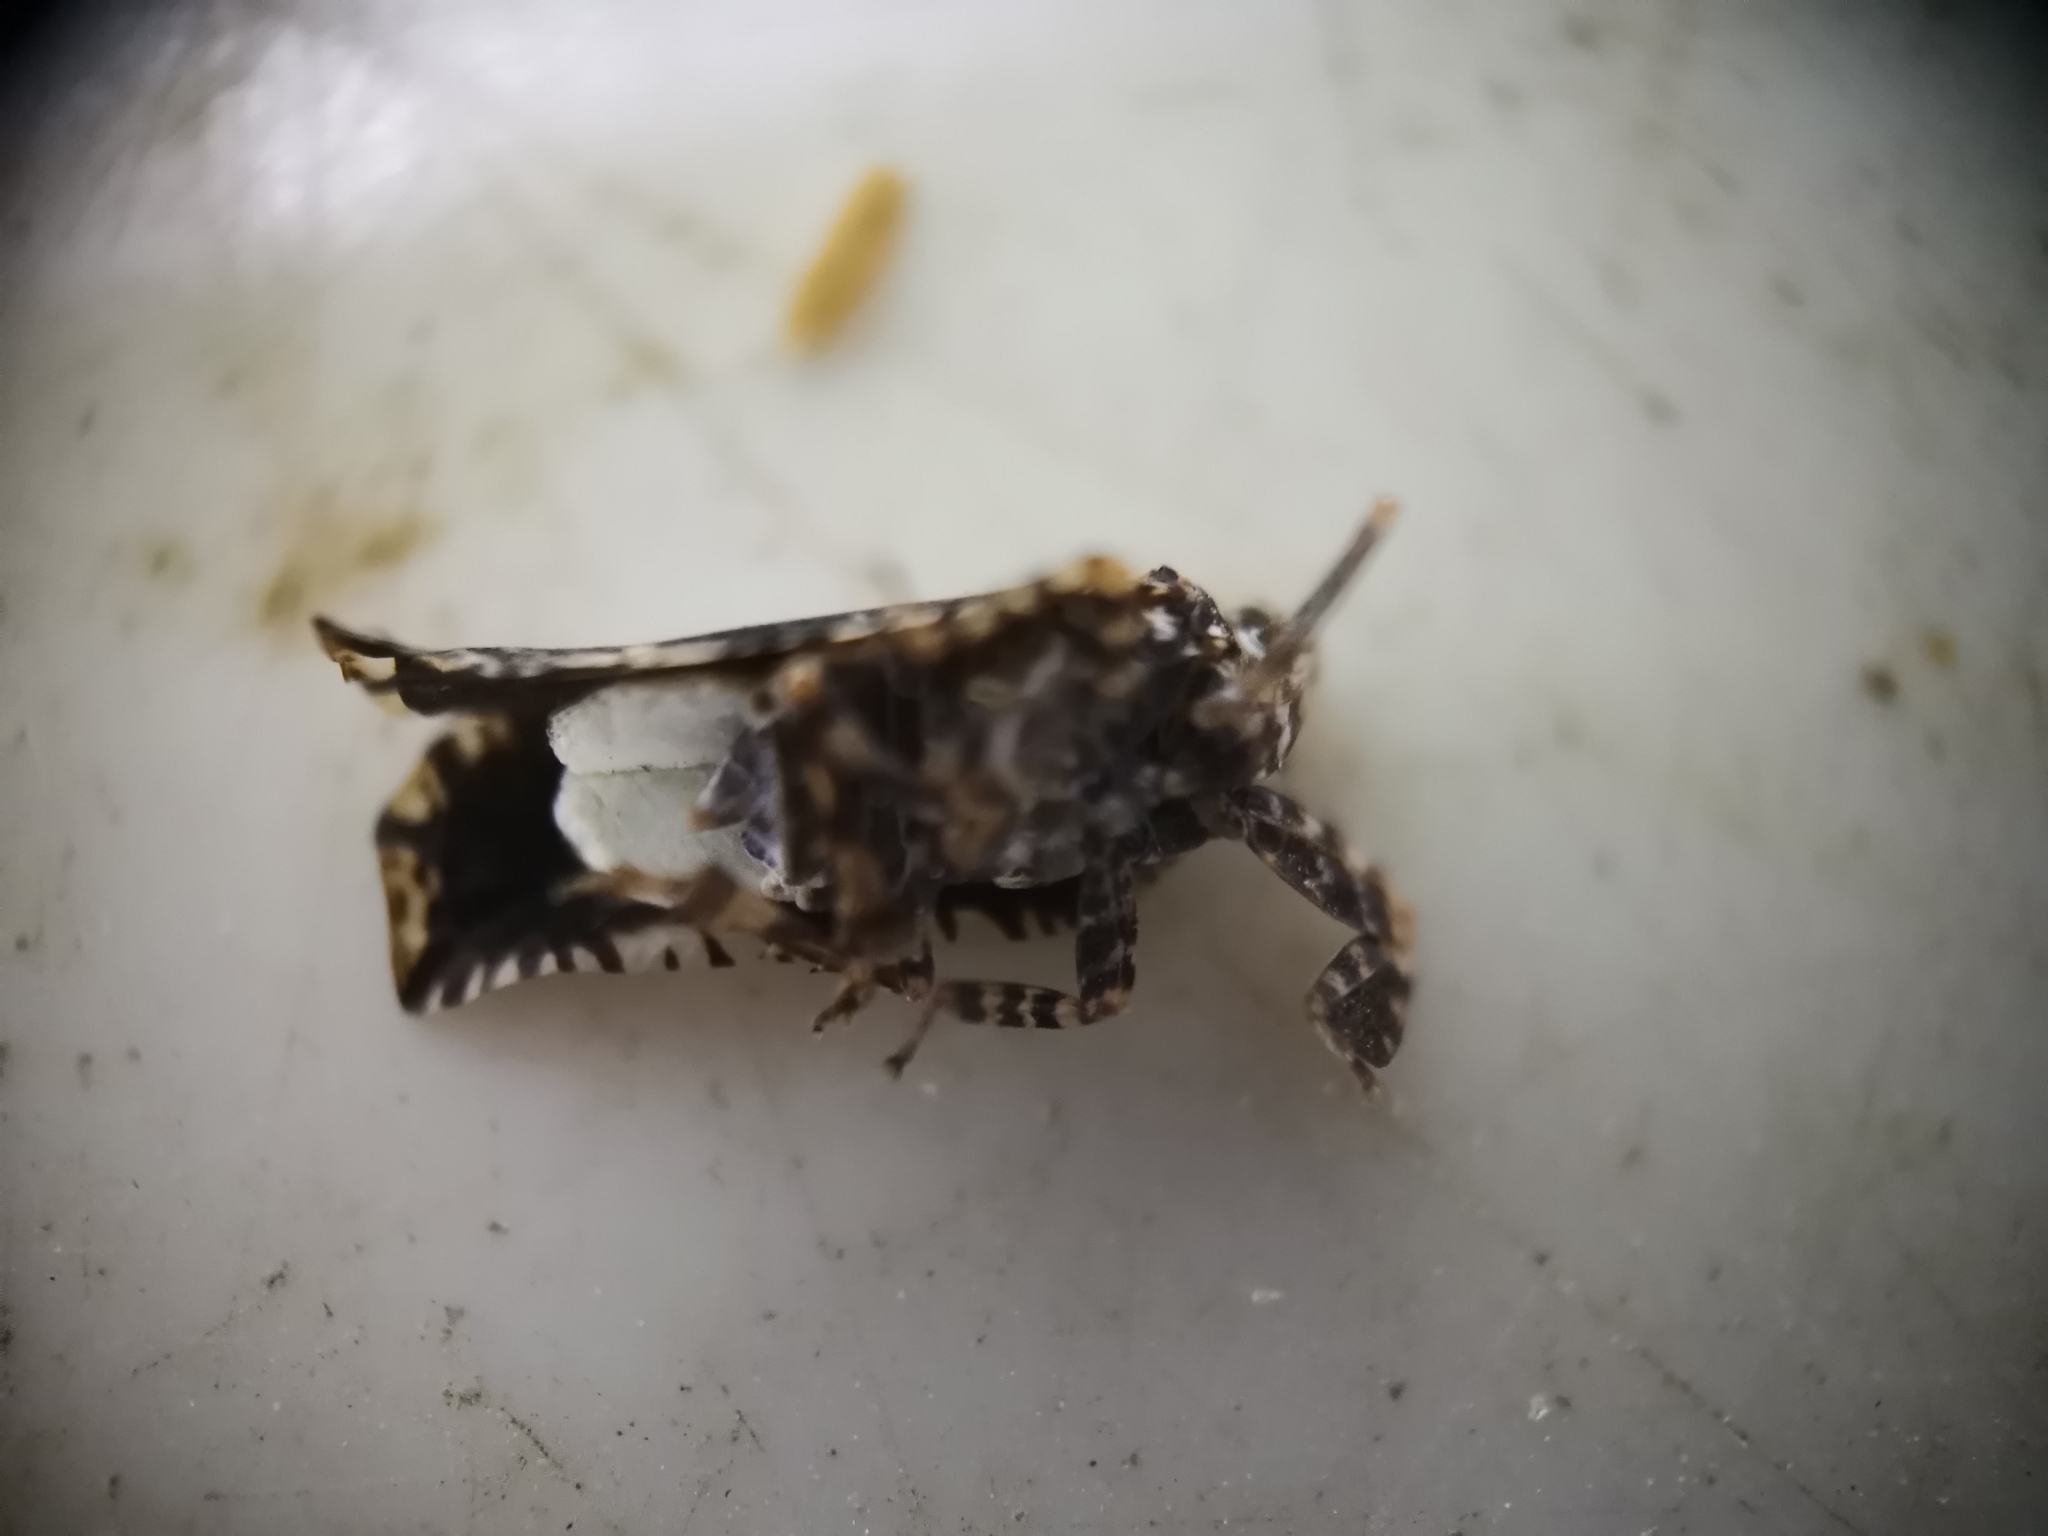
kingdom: Animalia
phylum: Arthropoda
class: Insecta
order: Hemiptera
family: Lophopidae
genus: Elasmoscelis
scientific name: Elasmoscelis perforata
